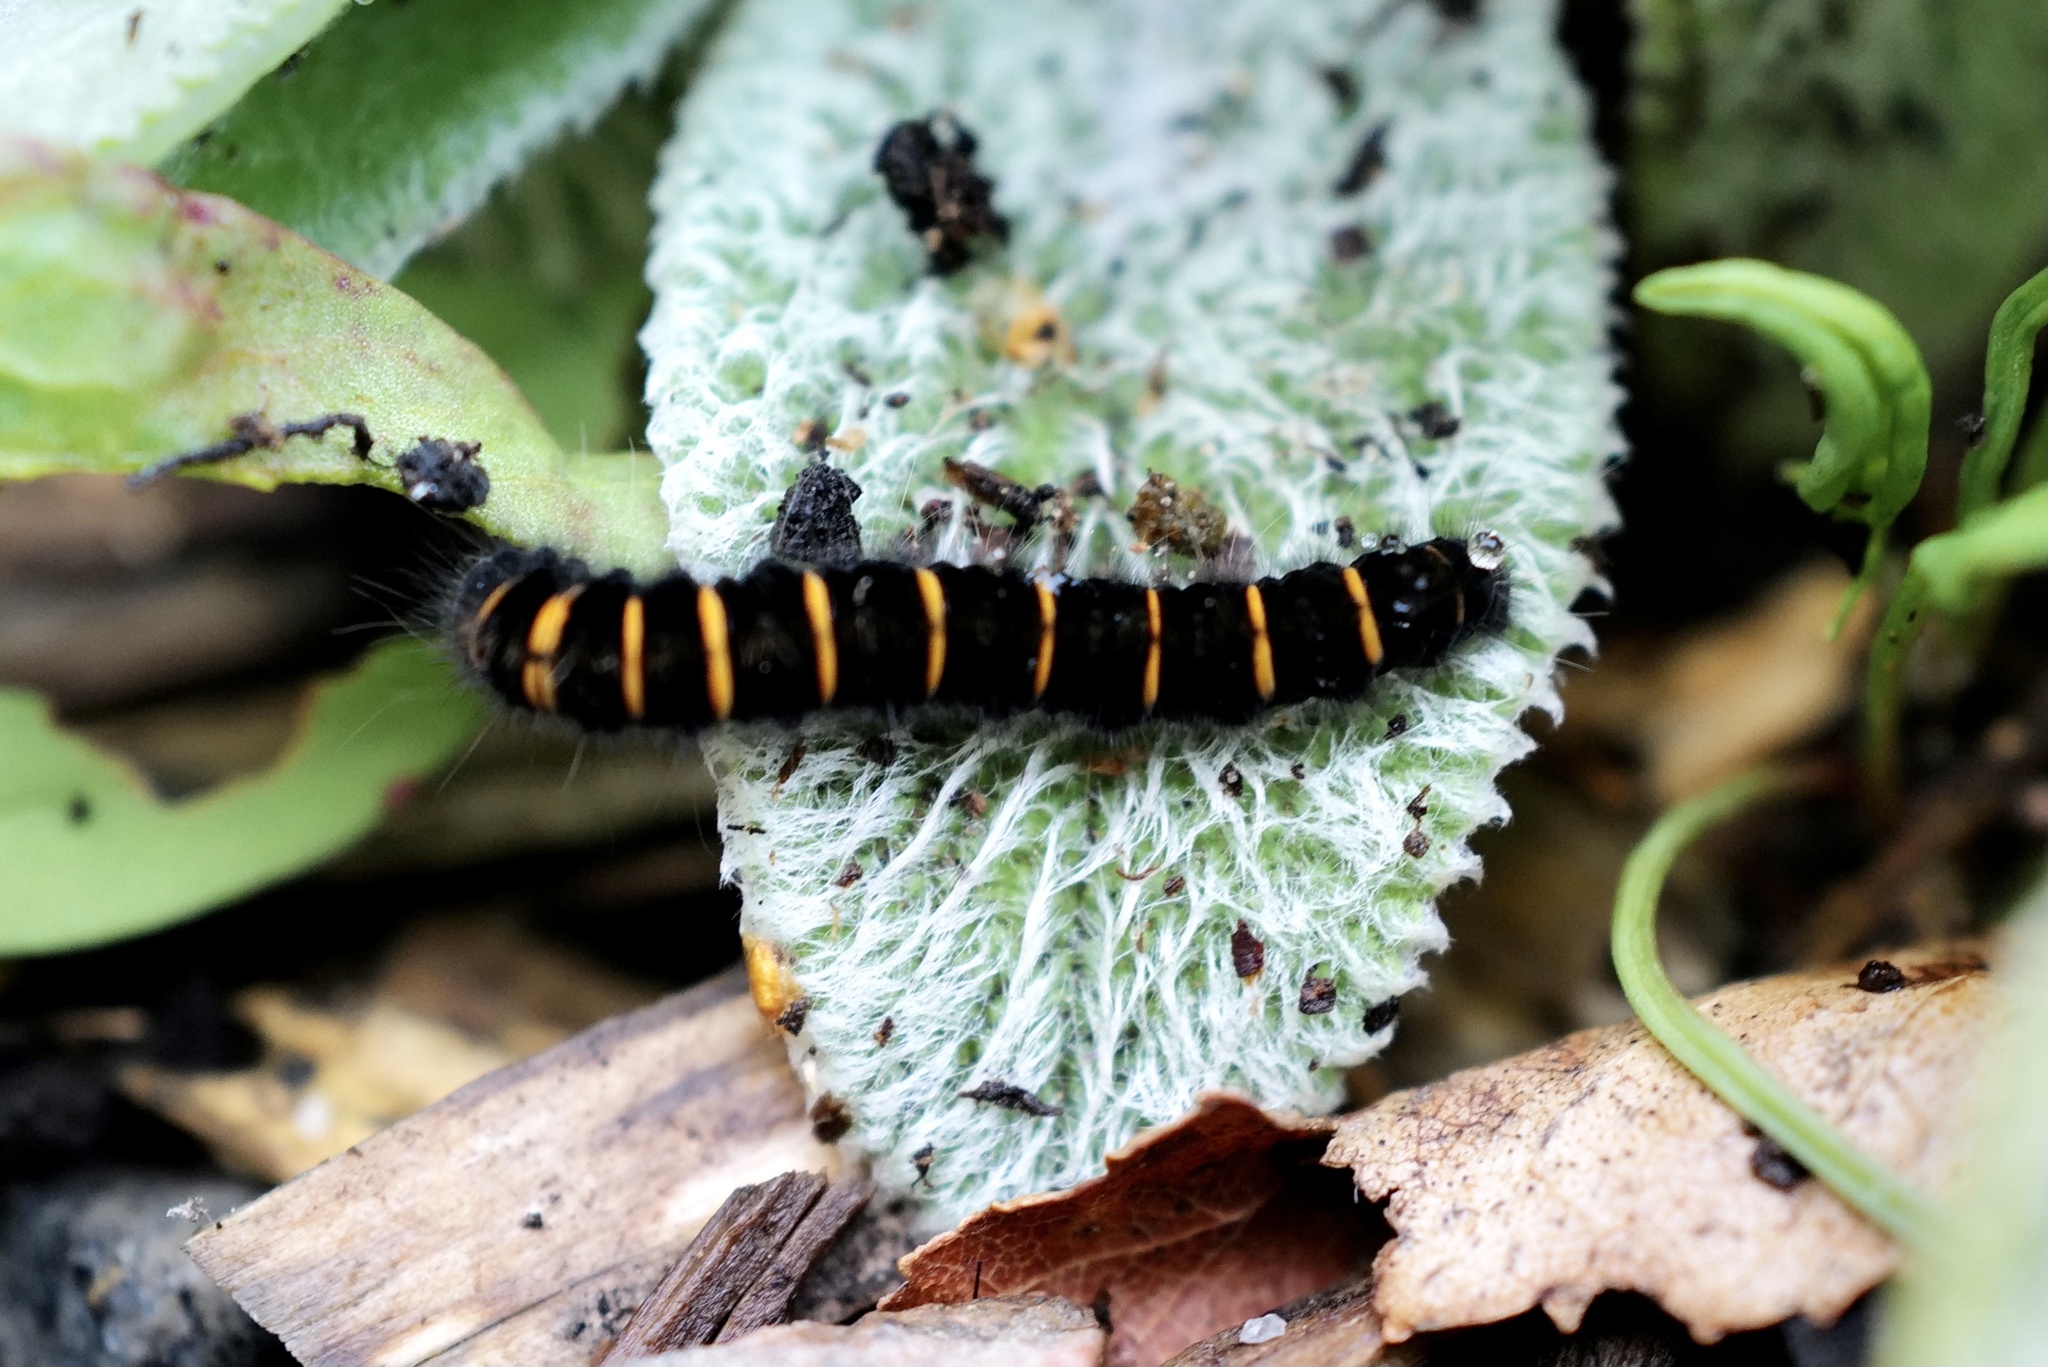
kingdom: Animalia
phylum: Arthropoda
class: Insecta
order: Lepidoptera
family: Lasiocampidae
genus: Macrothylacia
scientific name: Macrothylacia rubi
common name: Fox moth
